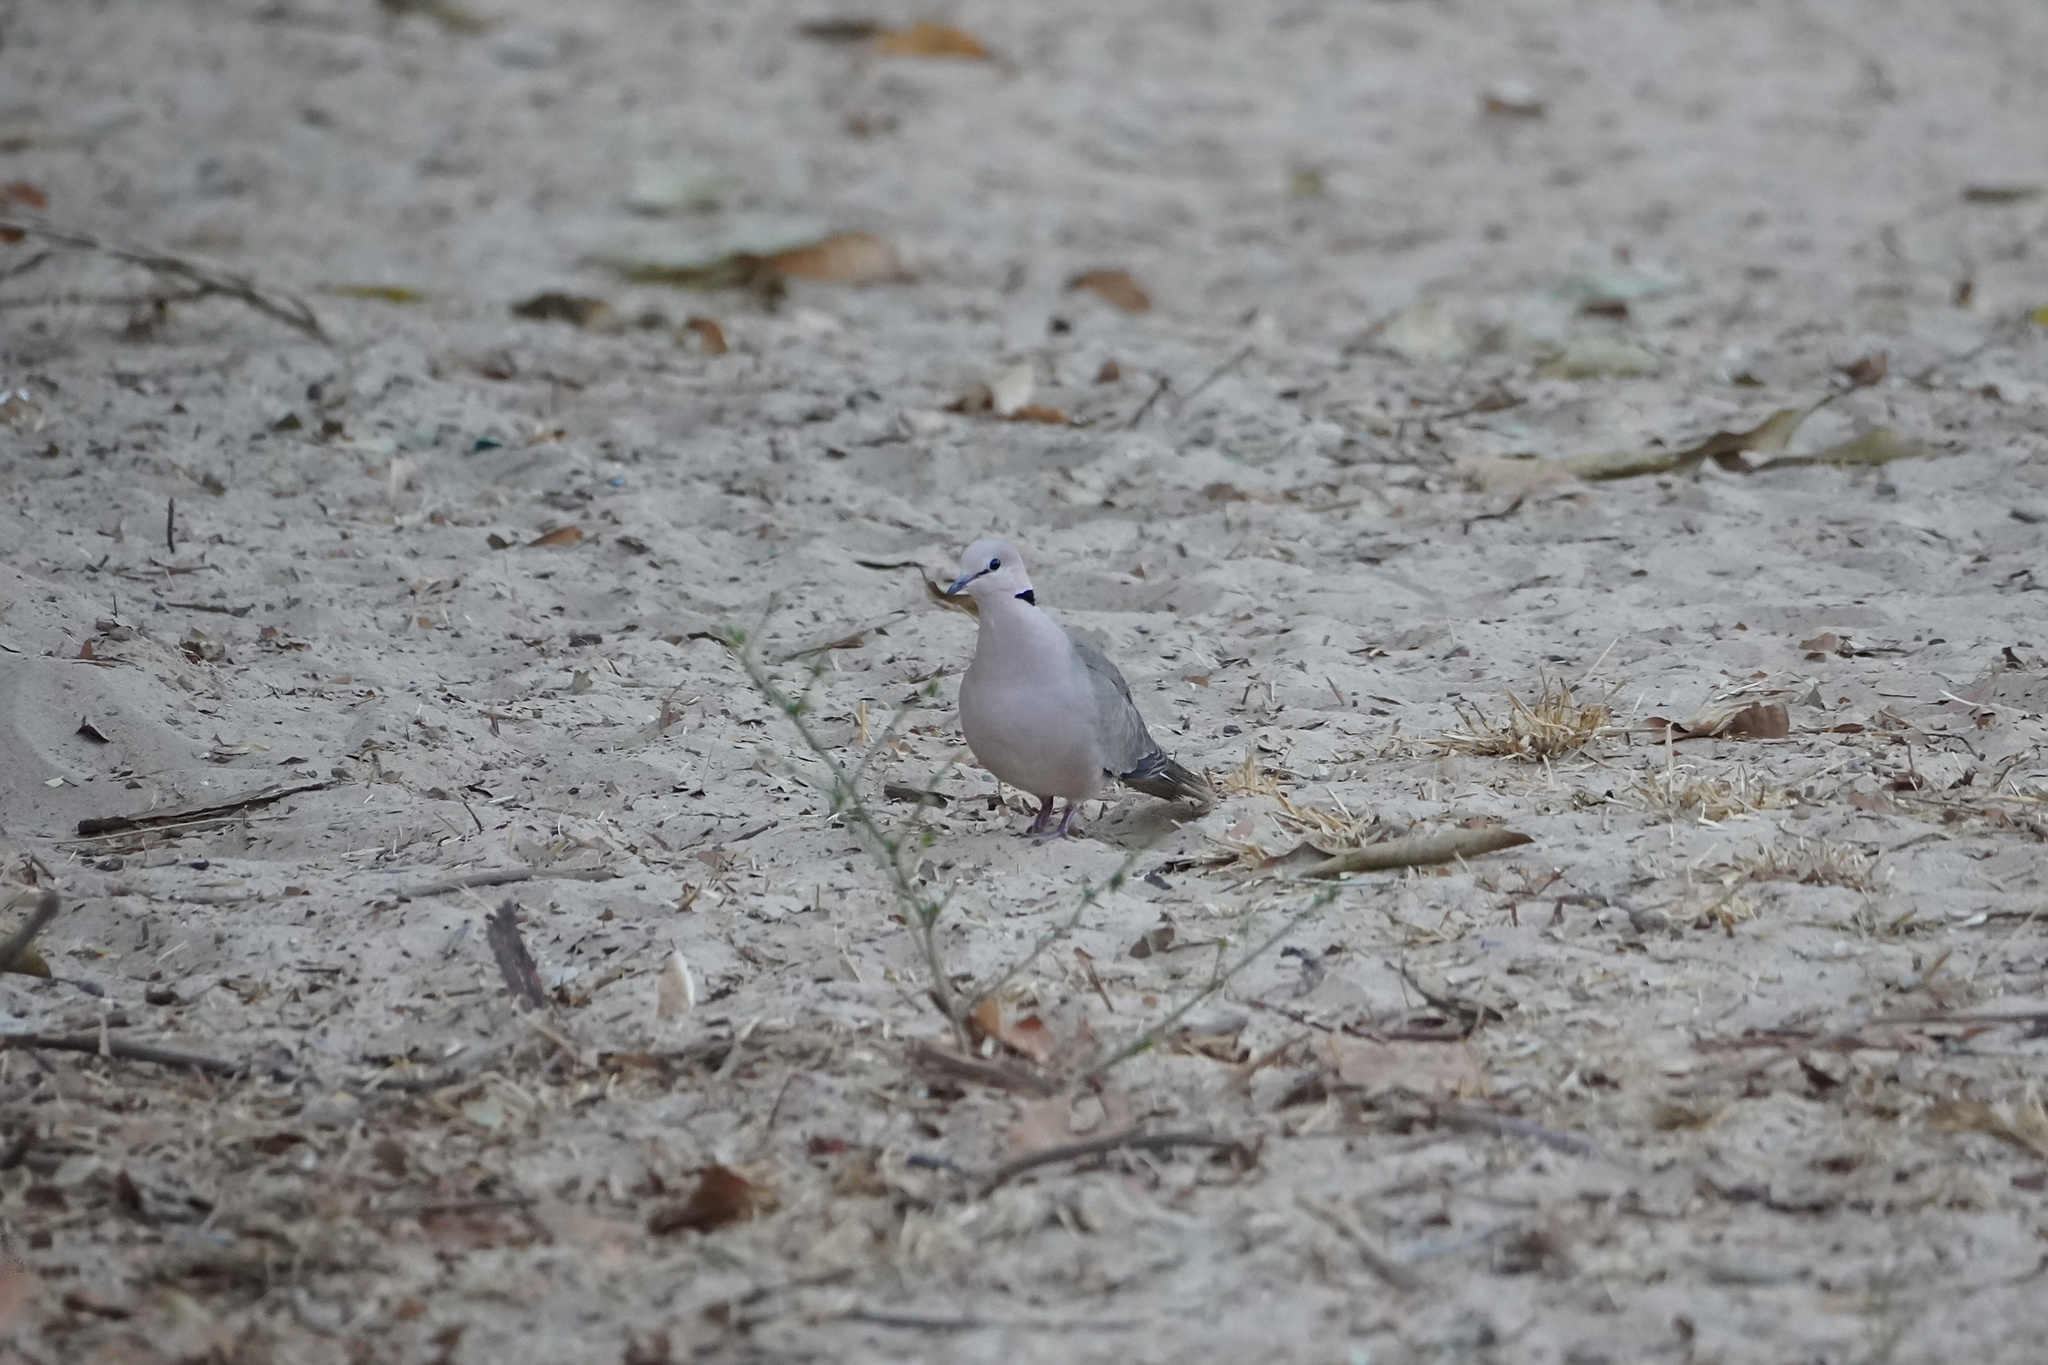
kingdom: Animalia
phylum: Chordata
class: Aves
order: Columbiformes
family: Columbidae
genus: Streptopelia
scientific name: Streptopelia vinacea
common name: Vinaceous dove
